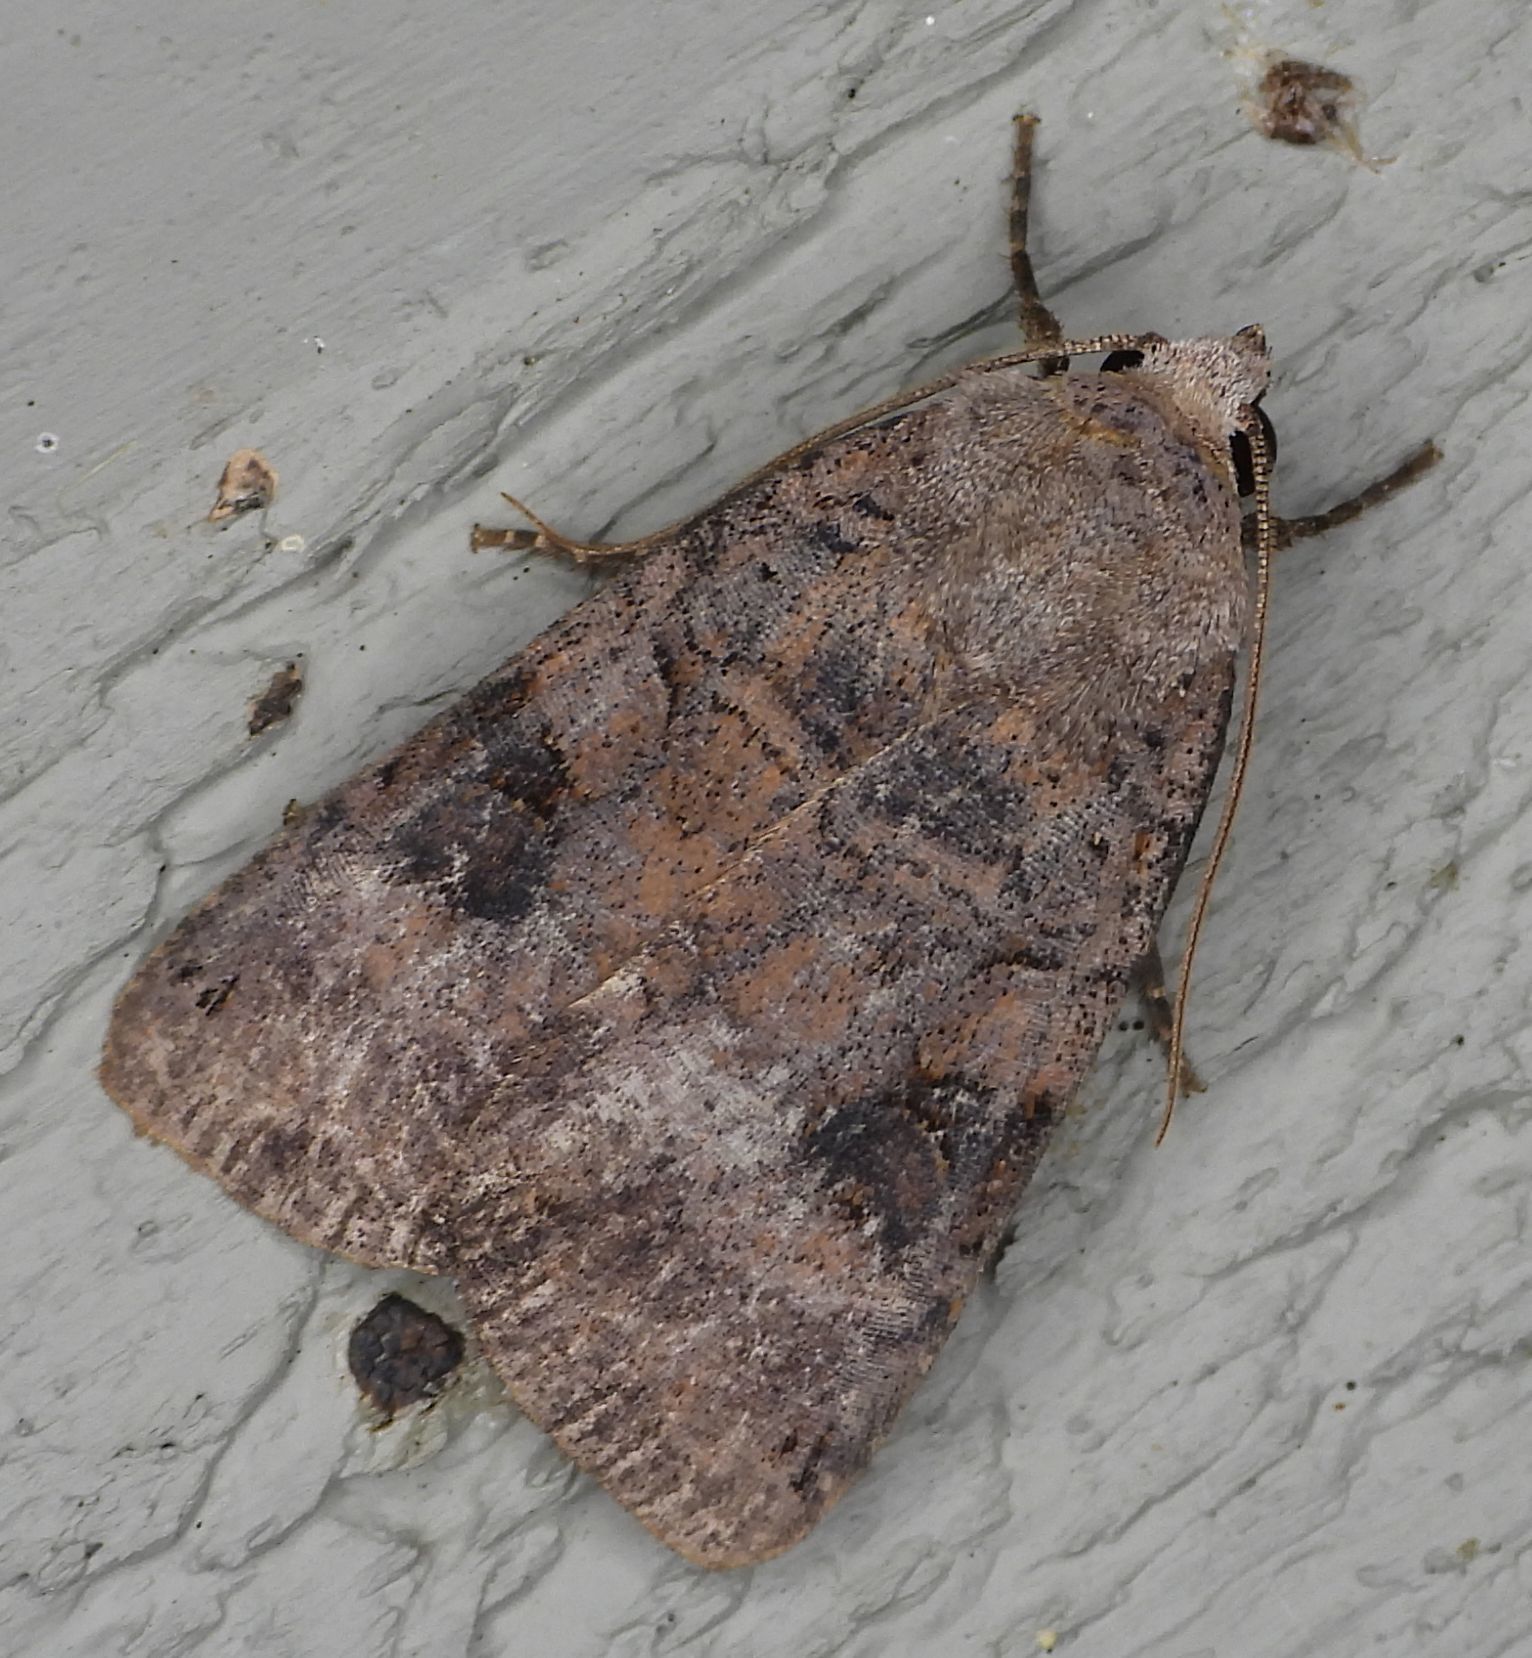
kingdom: Animalia
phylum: Arthropoda
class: Insecta
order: Lepidoptera
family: Noctuidae
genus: Xestia
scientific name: Xestia smithii
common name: Smith's dart
